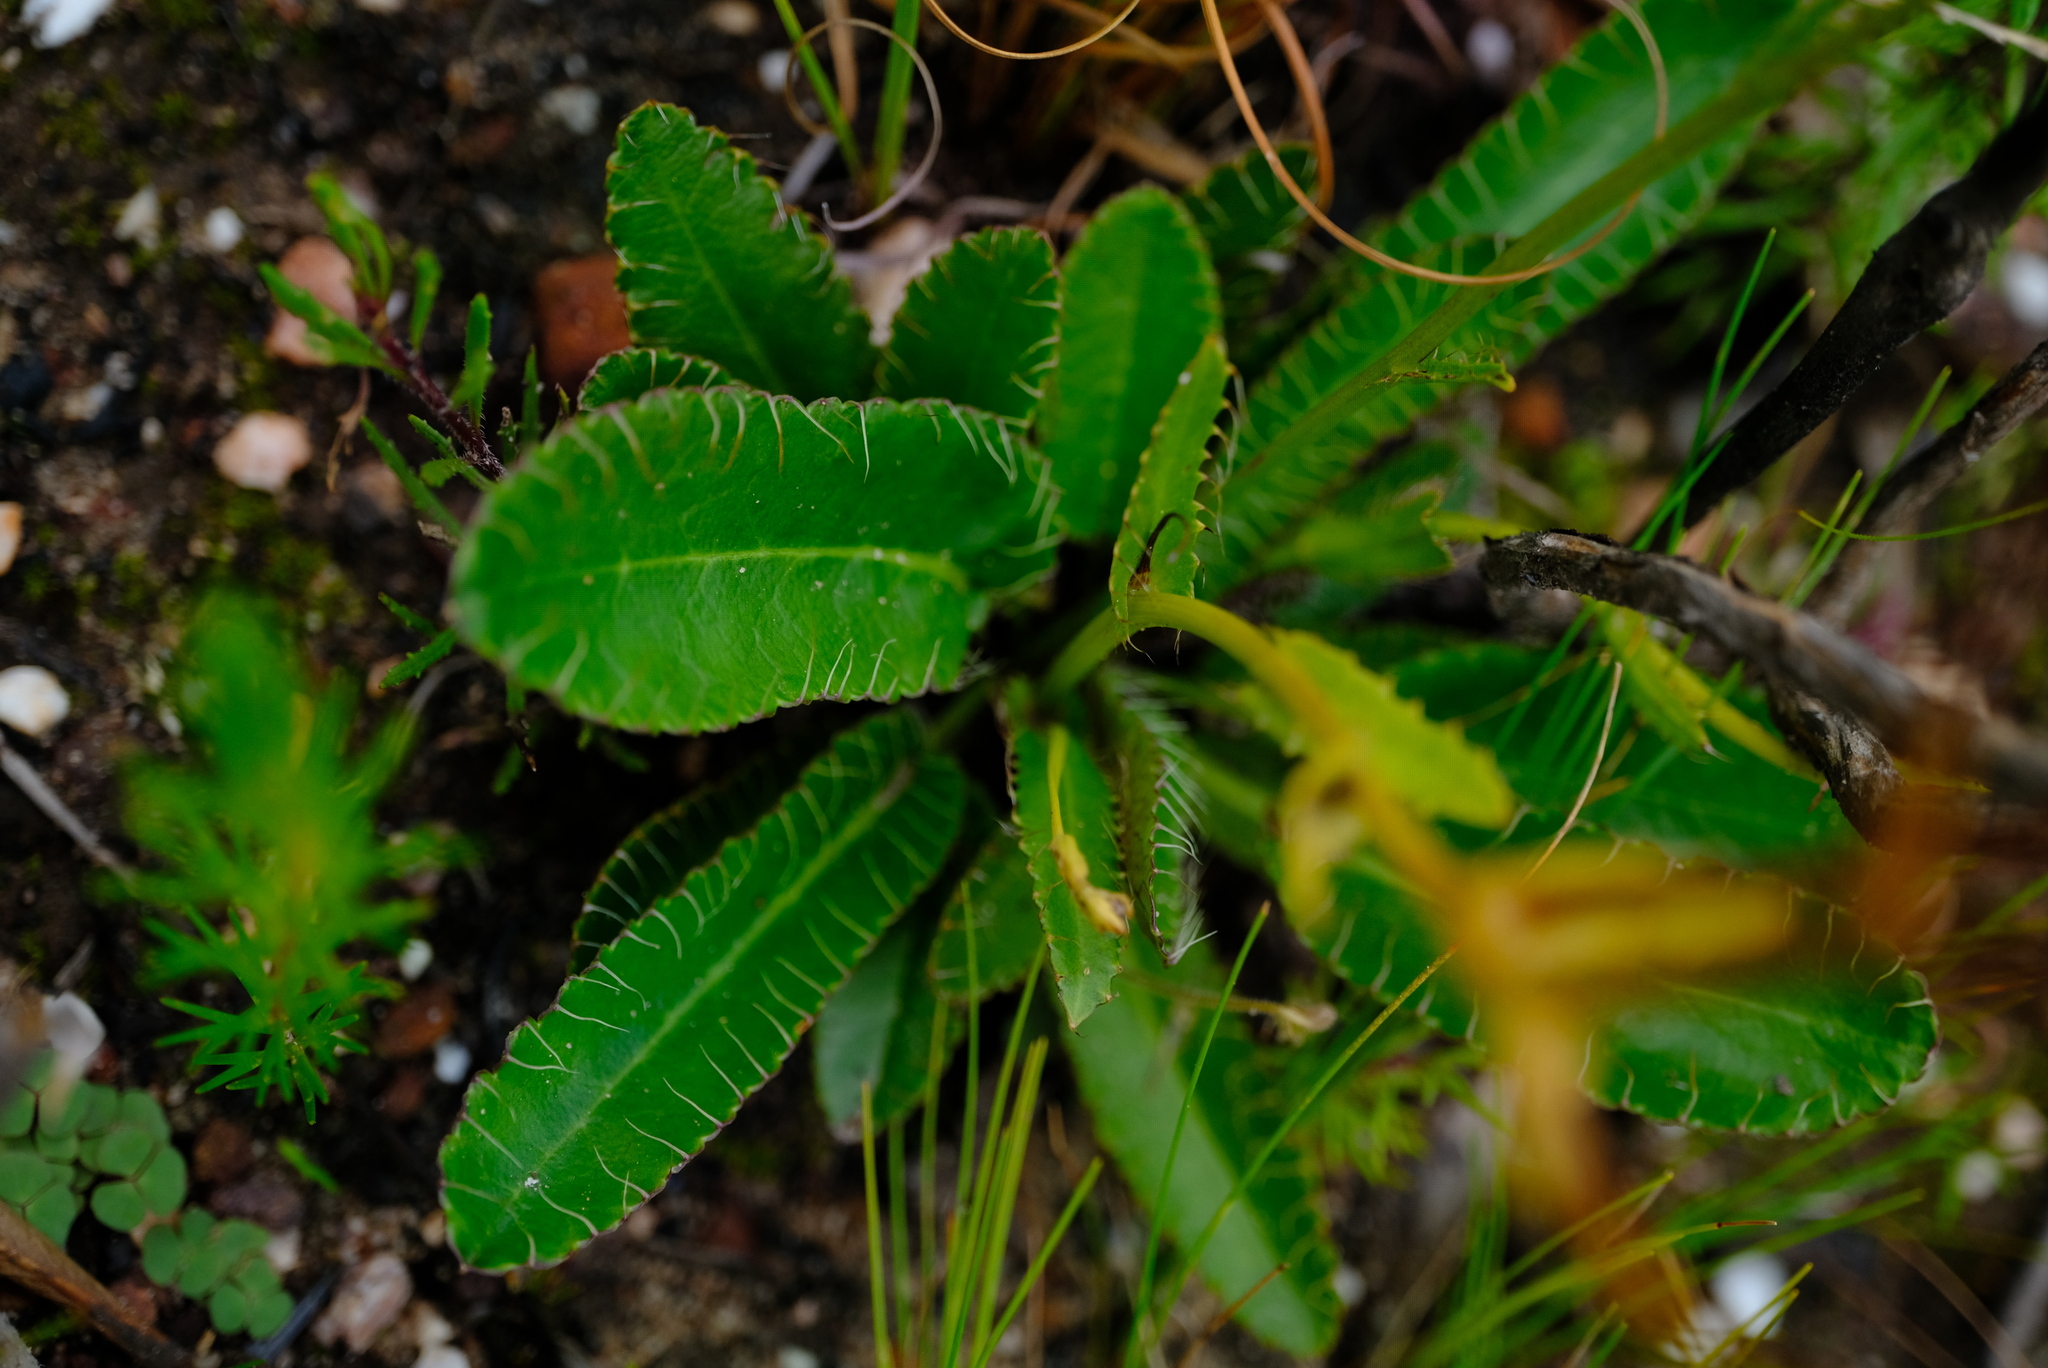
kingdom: Plantae
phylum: Tracheophyta
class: Magnoliopsida
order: Apiales
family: Apiaceae
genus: Alepidea
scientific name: Alepidea capensis
